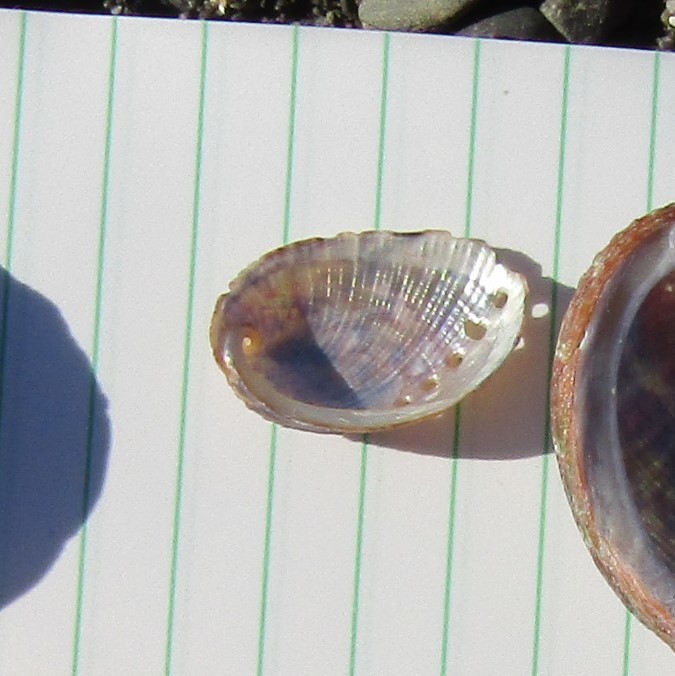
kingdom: Animalia
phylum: Mollusca
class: Gastropoda
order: Lepetellida
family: Haliotidae
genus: Haliotis
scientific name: Haliotis iris
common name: Abalone
